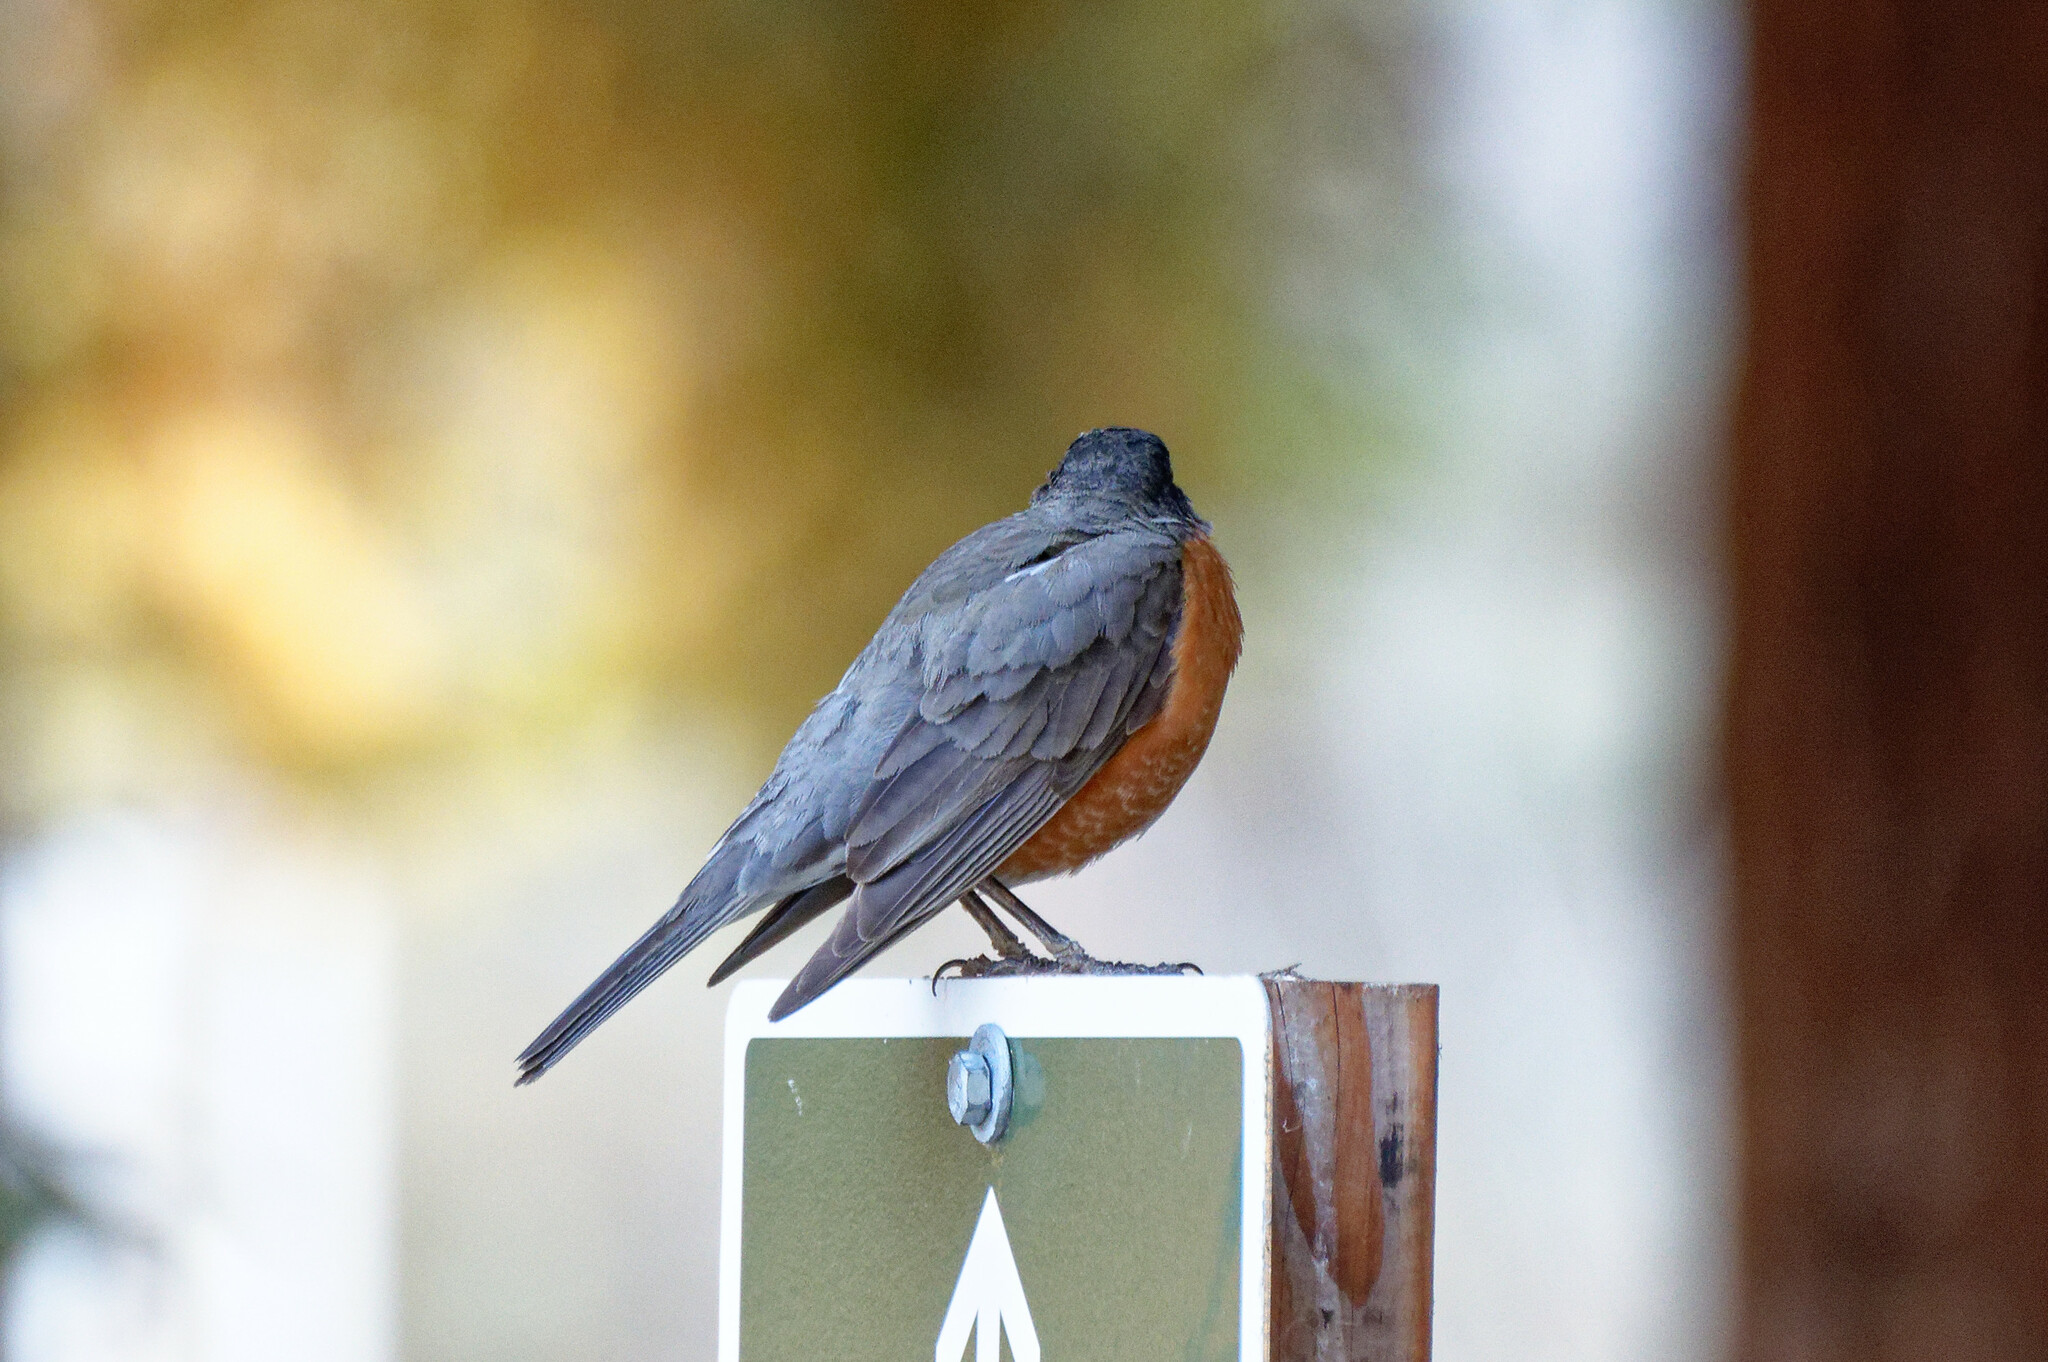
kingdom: Animalia
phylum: Chordata
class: Aves
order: Passeriformes
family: Turdidae
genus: Turdus
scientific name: Turdus migratorius
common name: American robin
